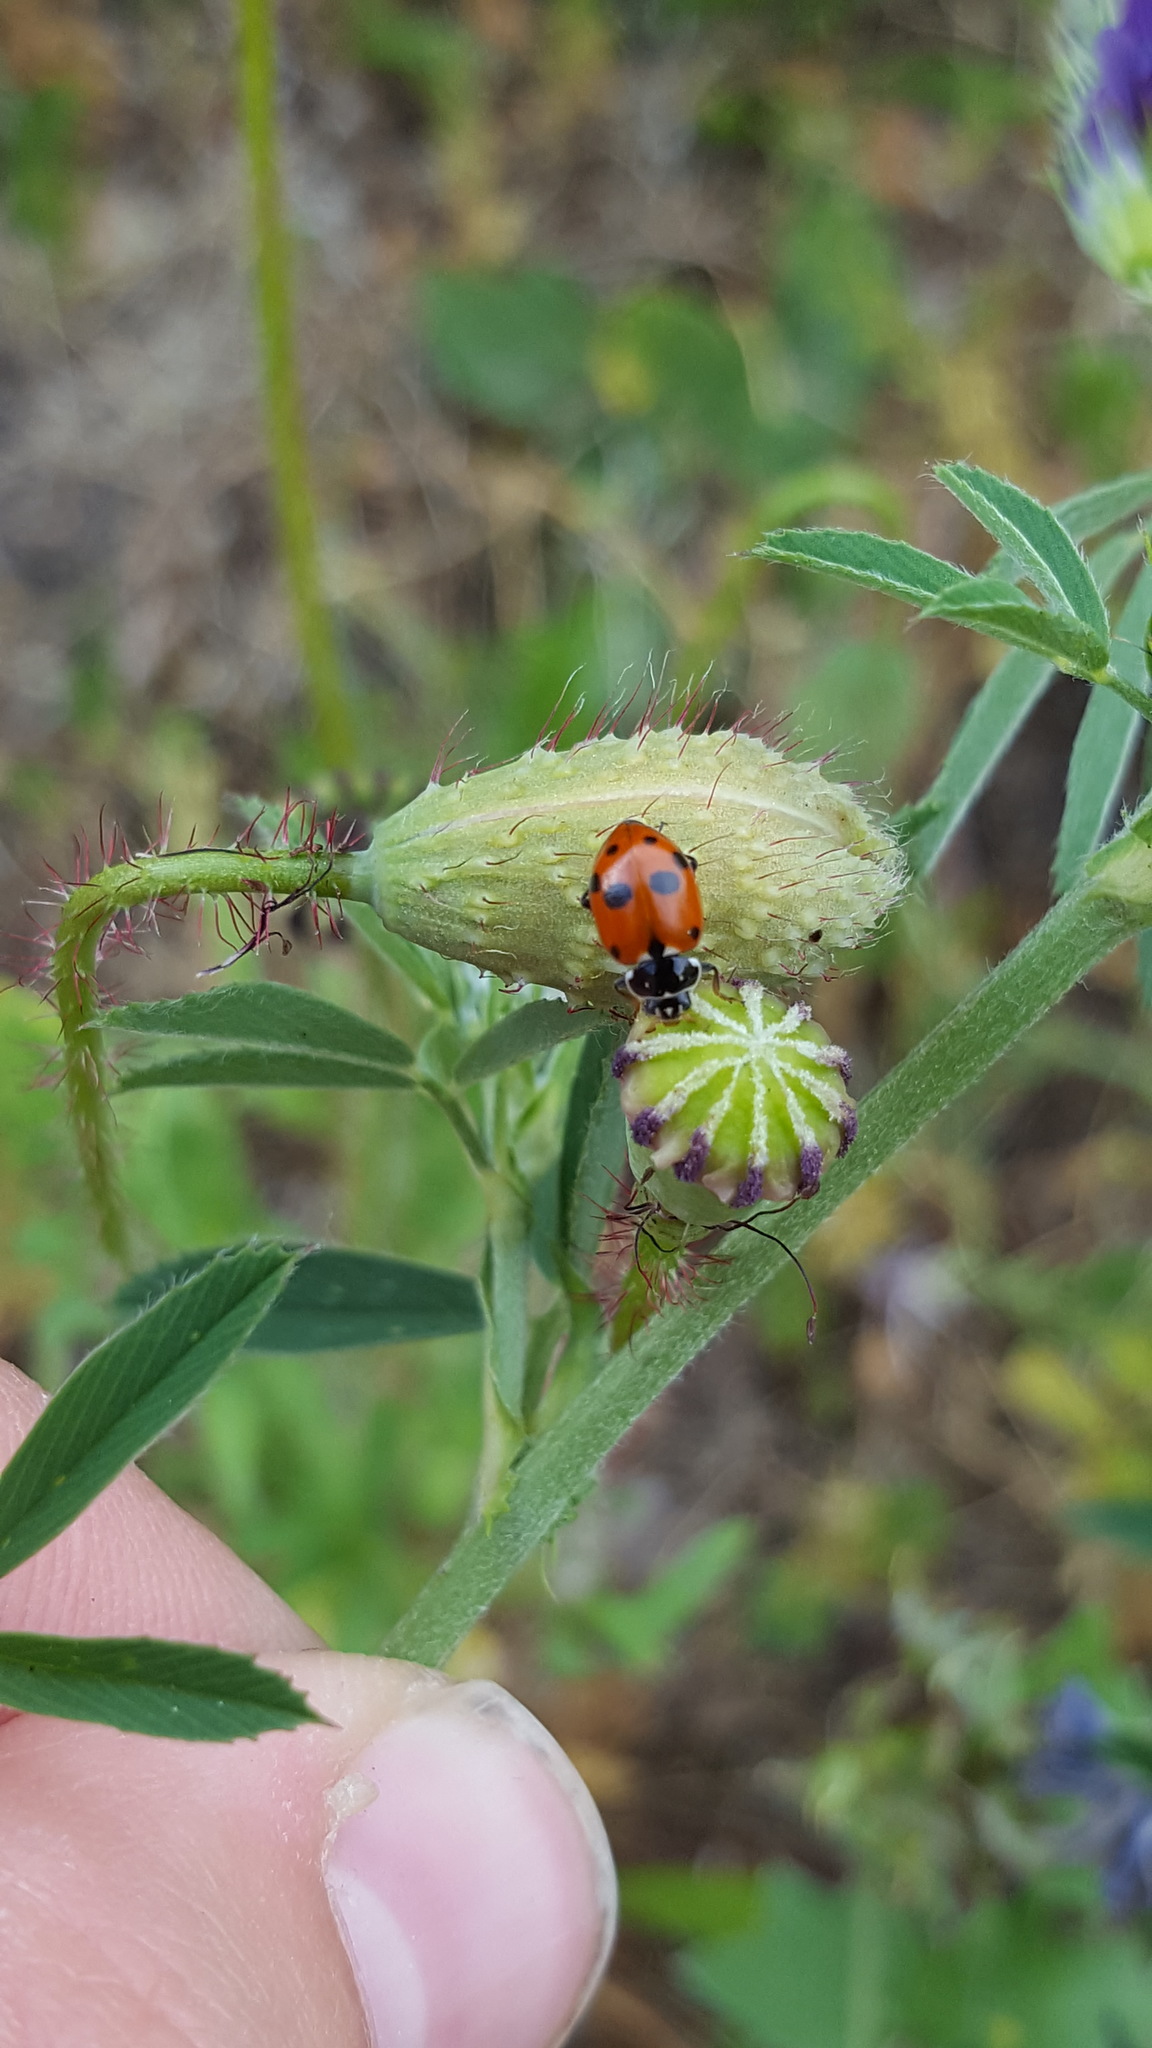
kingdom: Animalia
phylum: Arthropoda
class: Insecta
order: Coleoptera
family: Coccinellidae
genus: Hippodamia
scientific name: Hippodamia variegata
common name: Ladybird beetle
